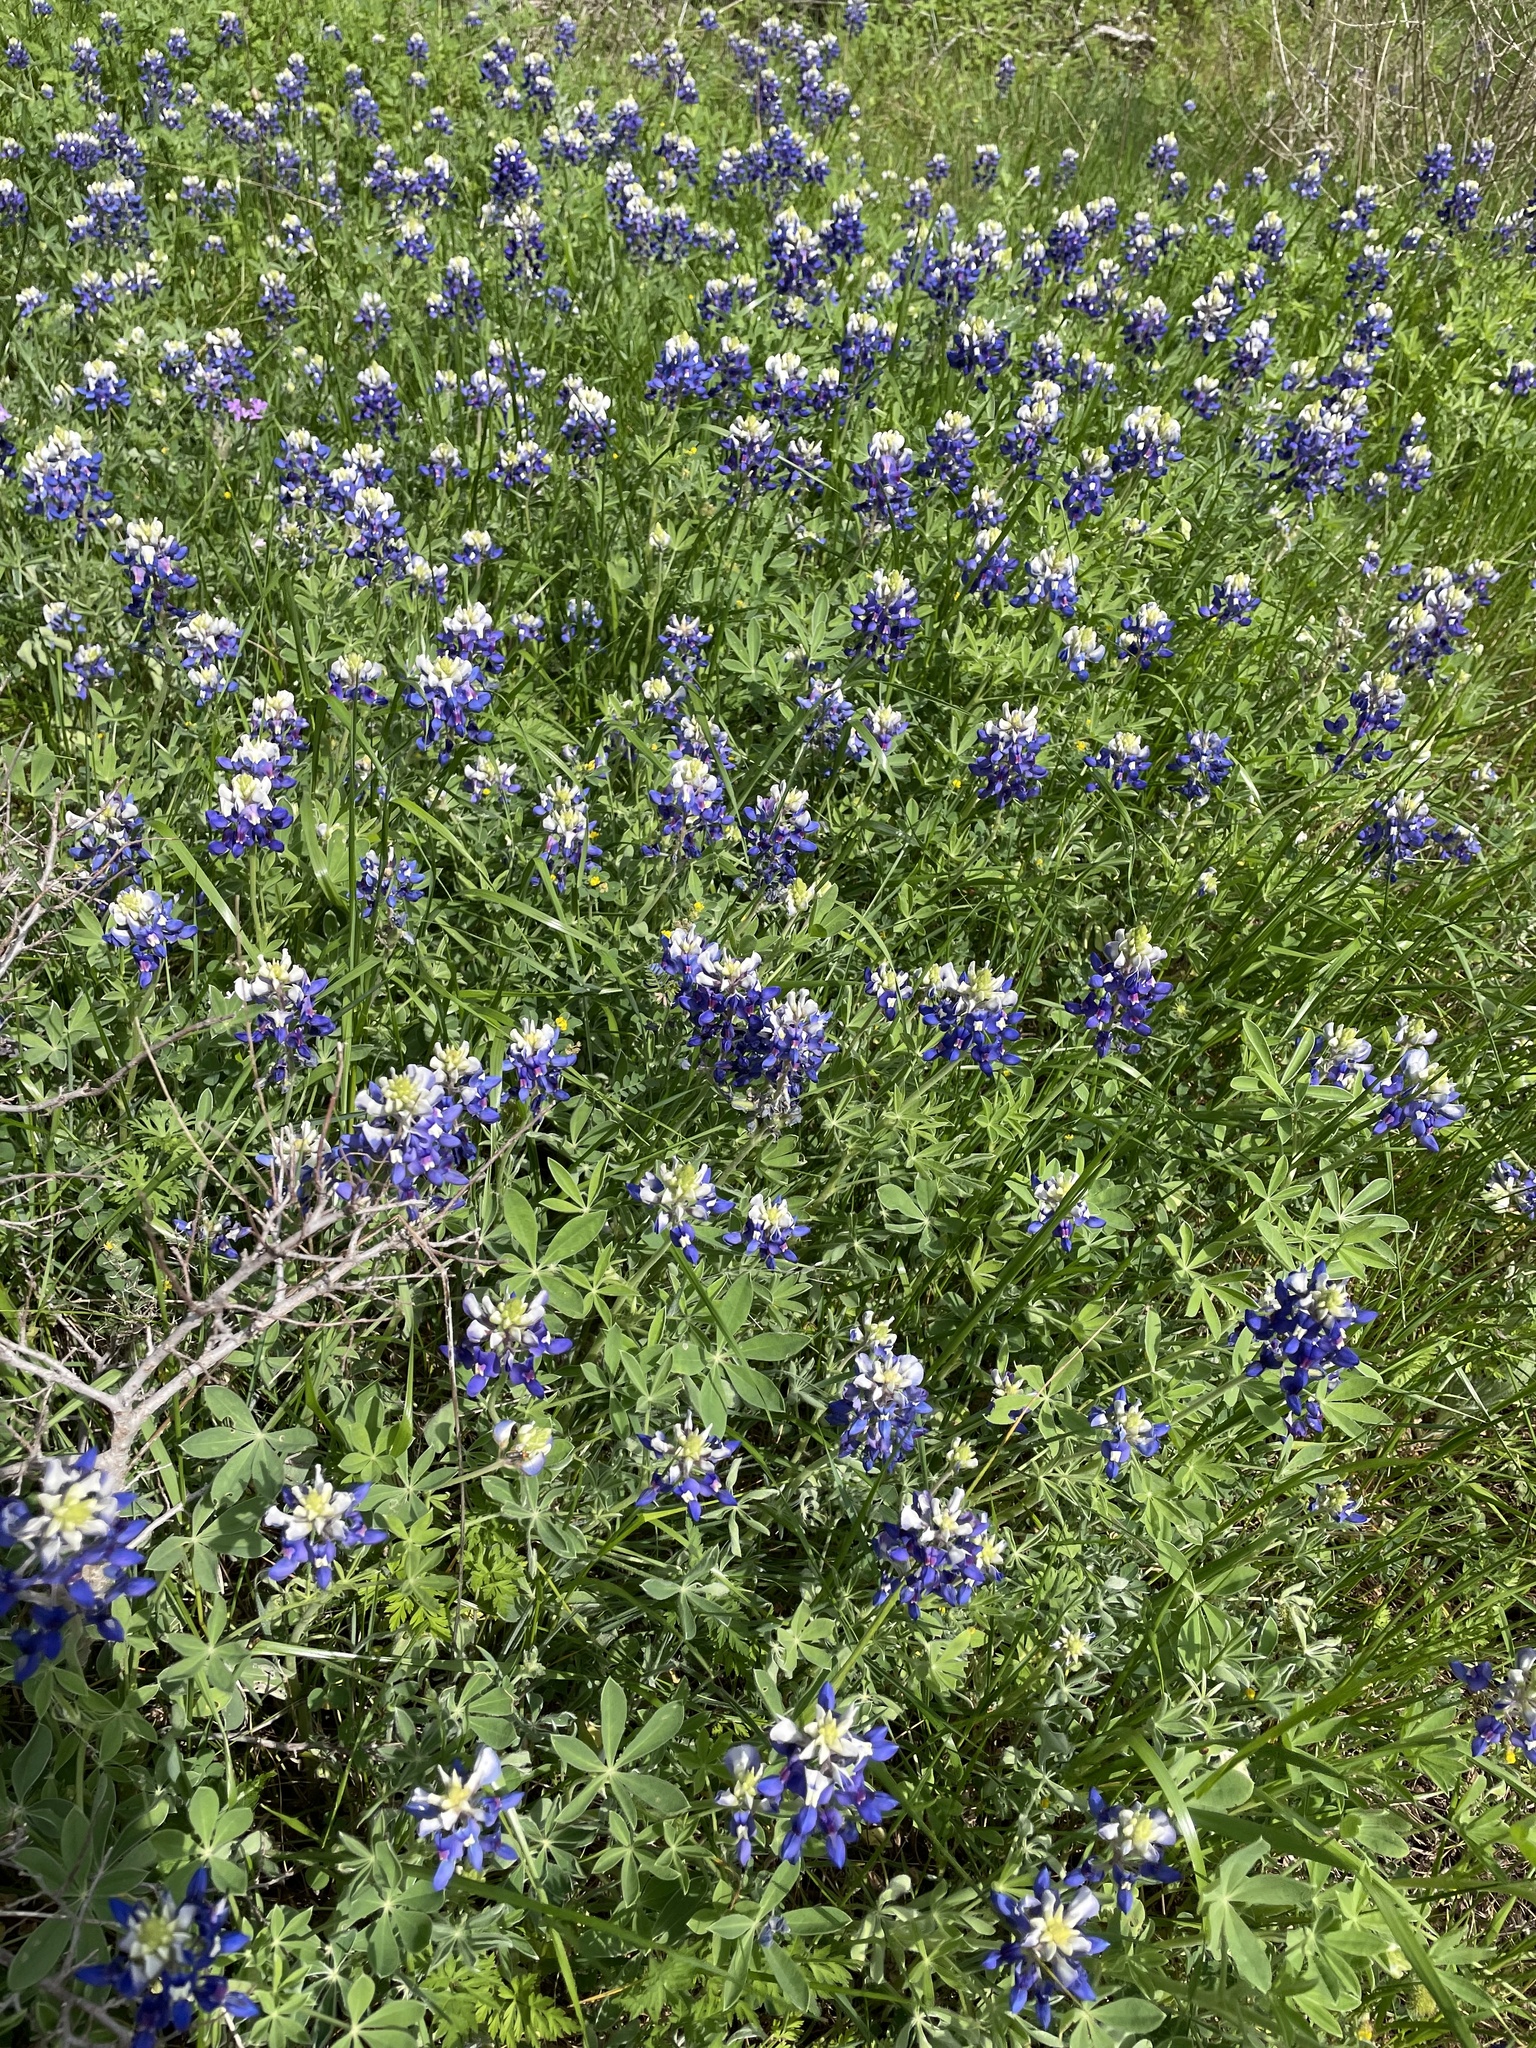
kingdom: Plantae
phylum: Tracheophyta
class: Magnoliopsida
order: Fabales
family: Fabaceae
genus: Lupinus
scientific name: Lupinus texensis
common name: Texas bluebonnet
